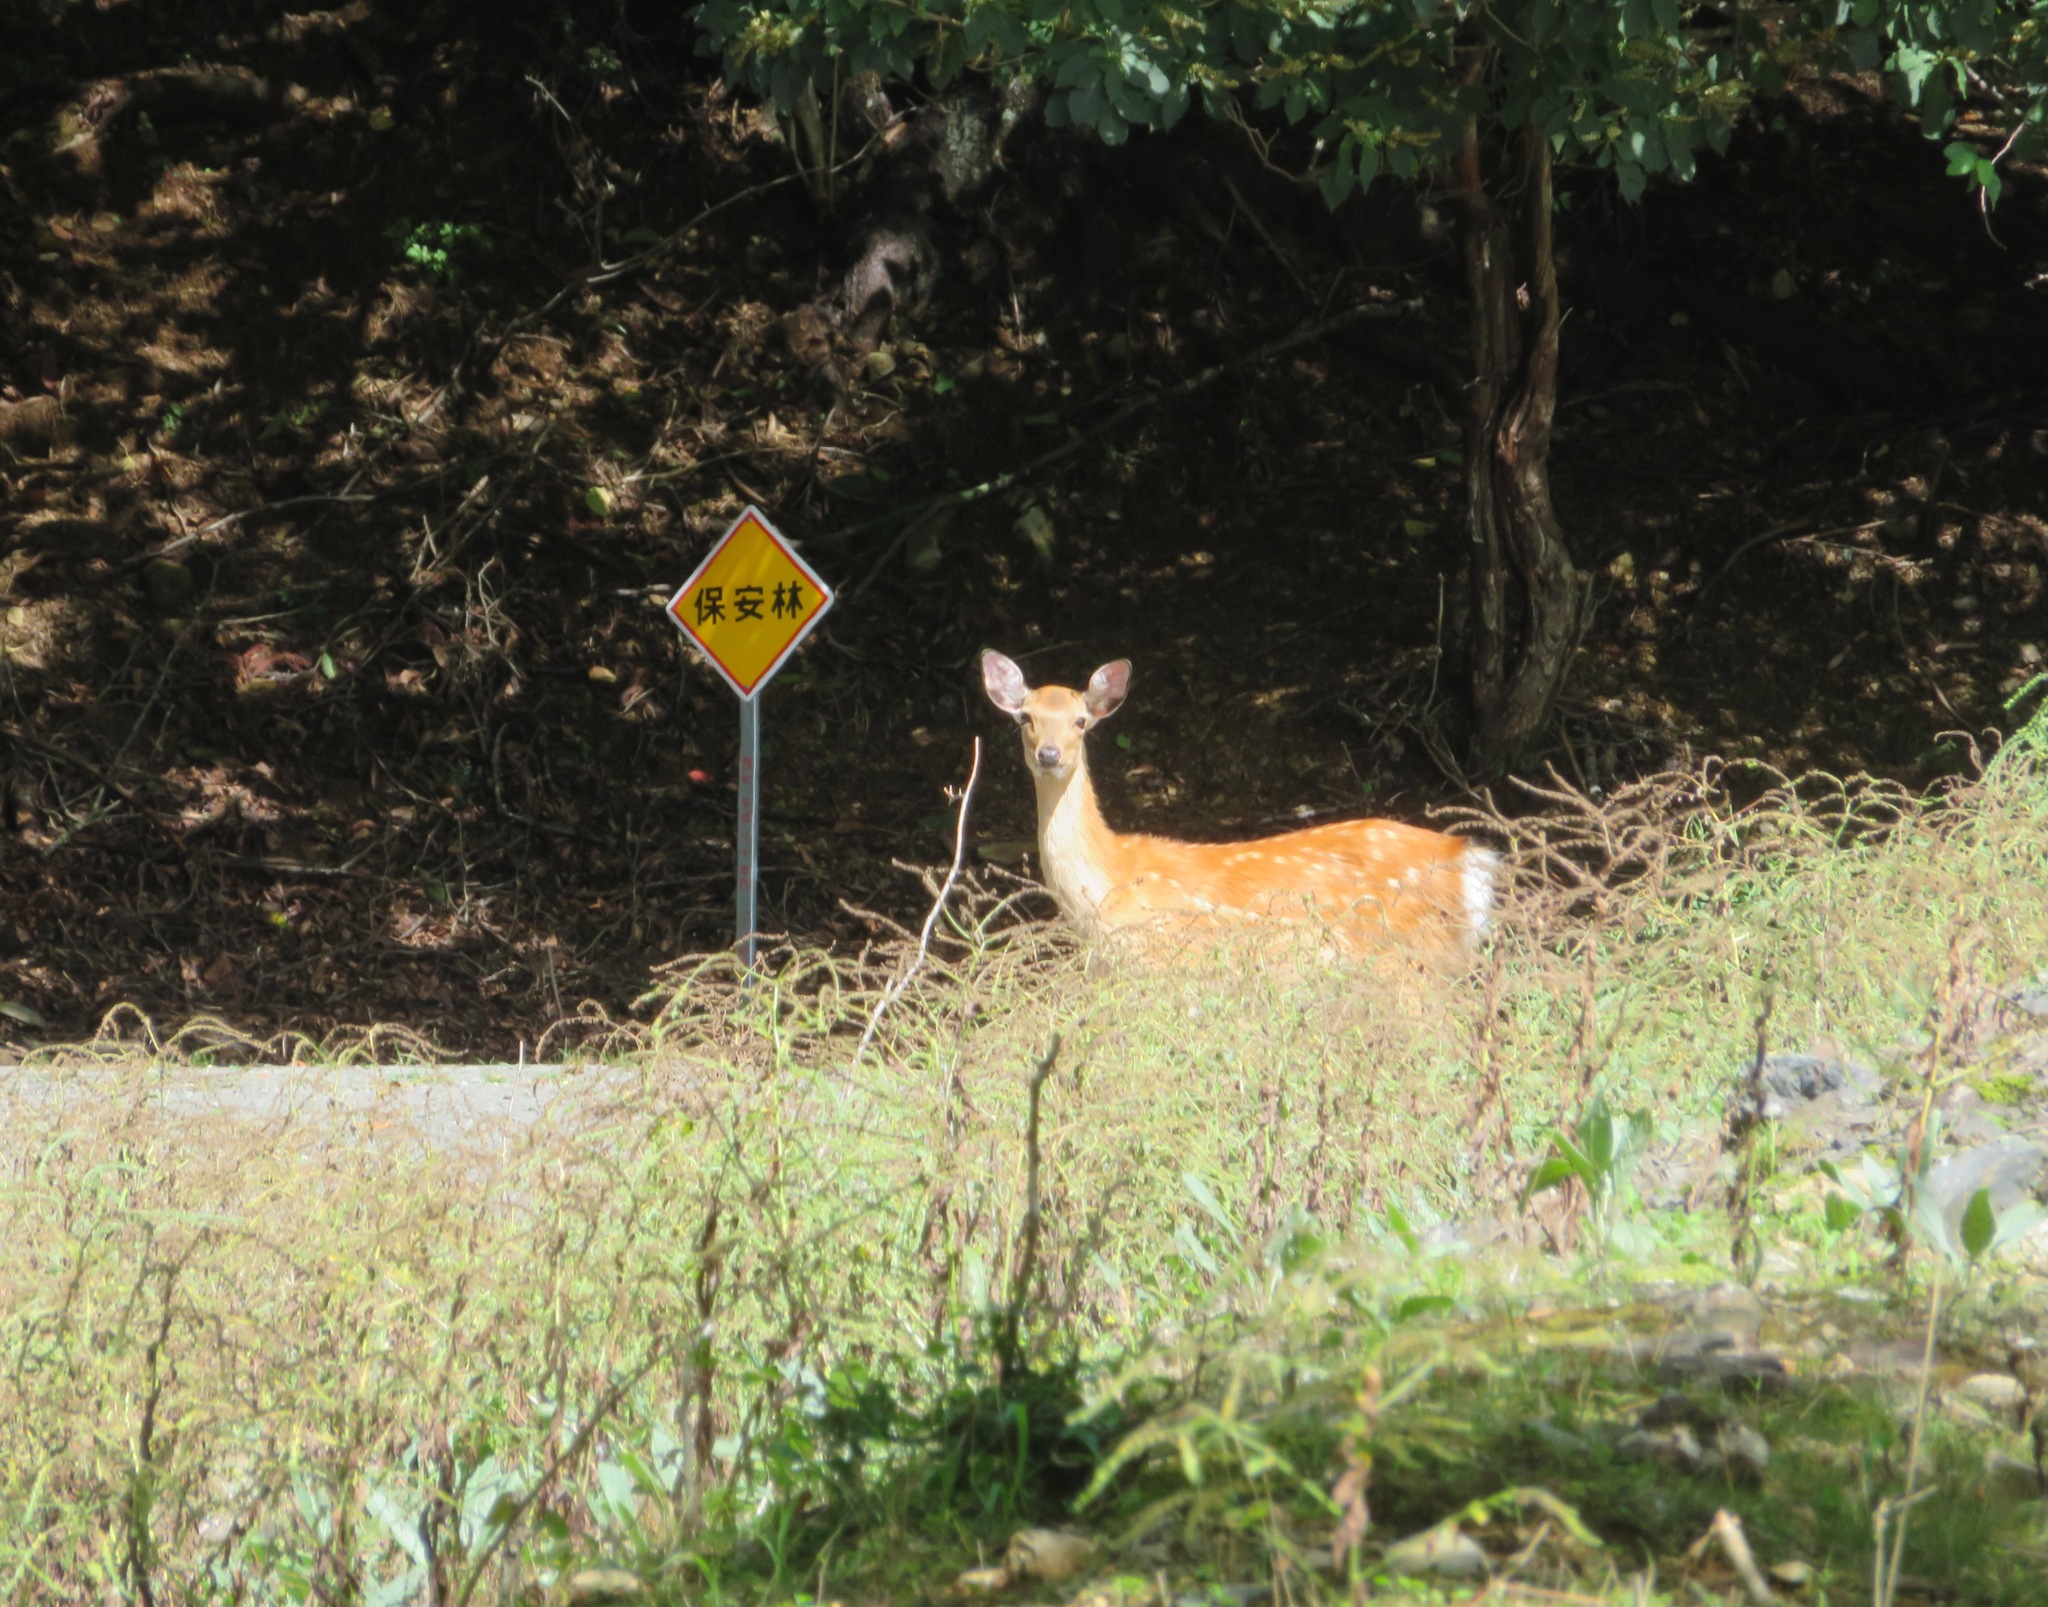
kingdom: Animalia
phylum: Chordata
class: Mammalia
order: Artiodactyla
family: Cervidae
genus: Cervus
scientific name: Cervus nippon
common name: Sika deer
